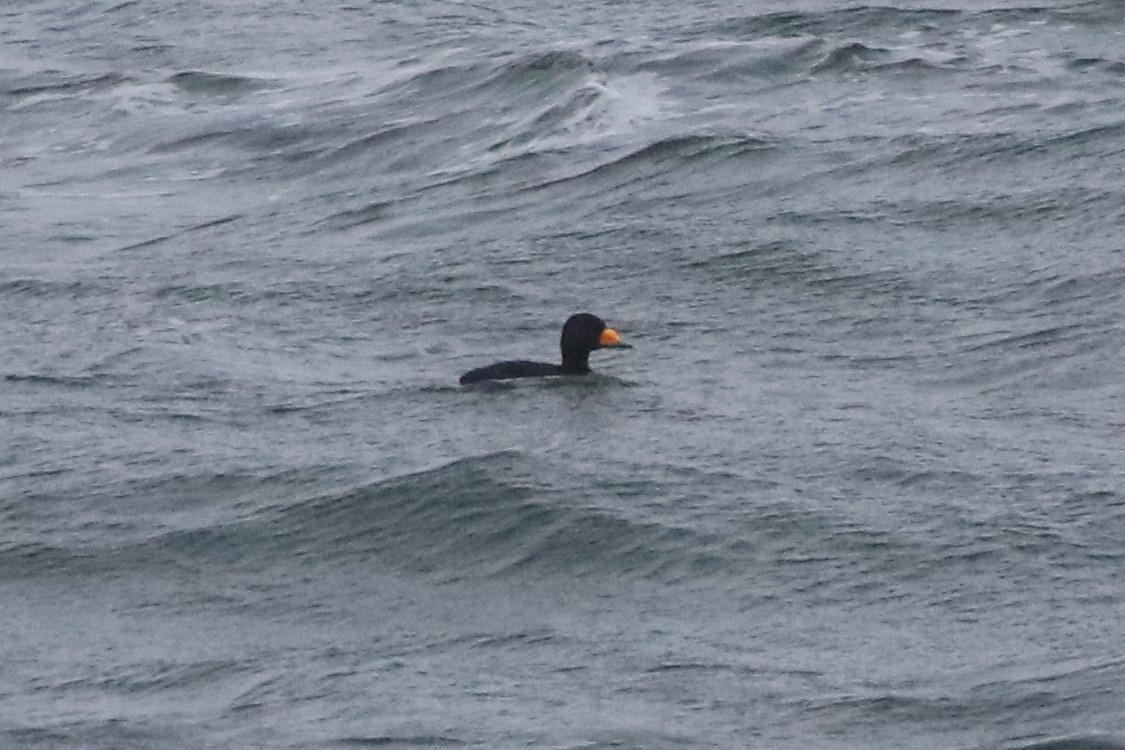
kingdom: Animalia
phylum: Chordata
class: Aves
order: Anseriformes
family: Anatidae
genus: Melanitta
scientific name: Melanitta americana
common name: Black scoter
